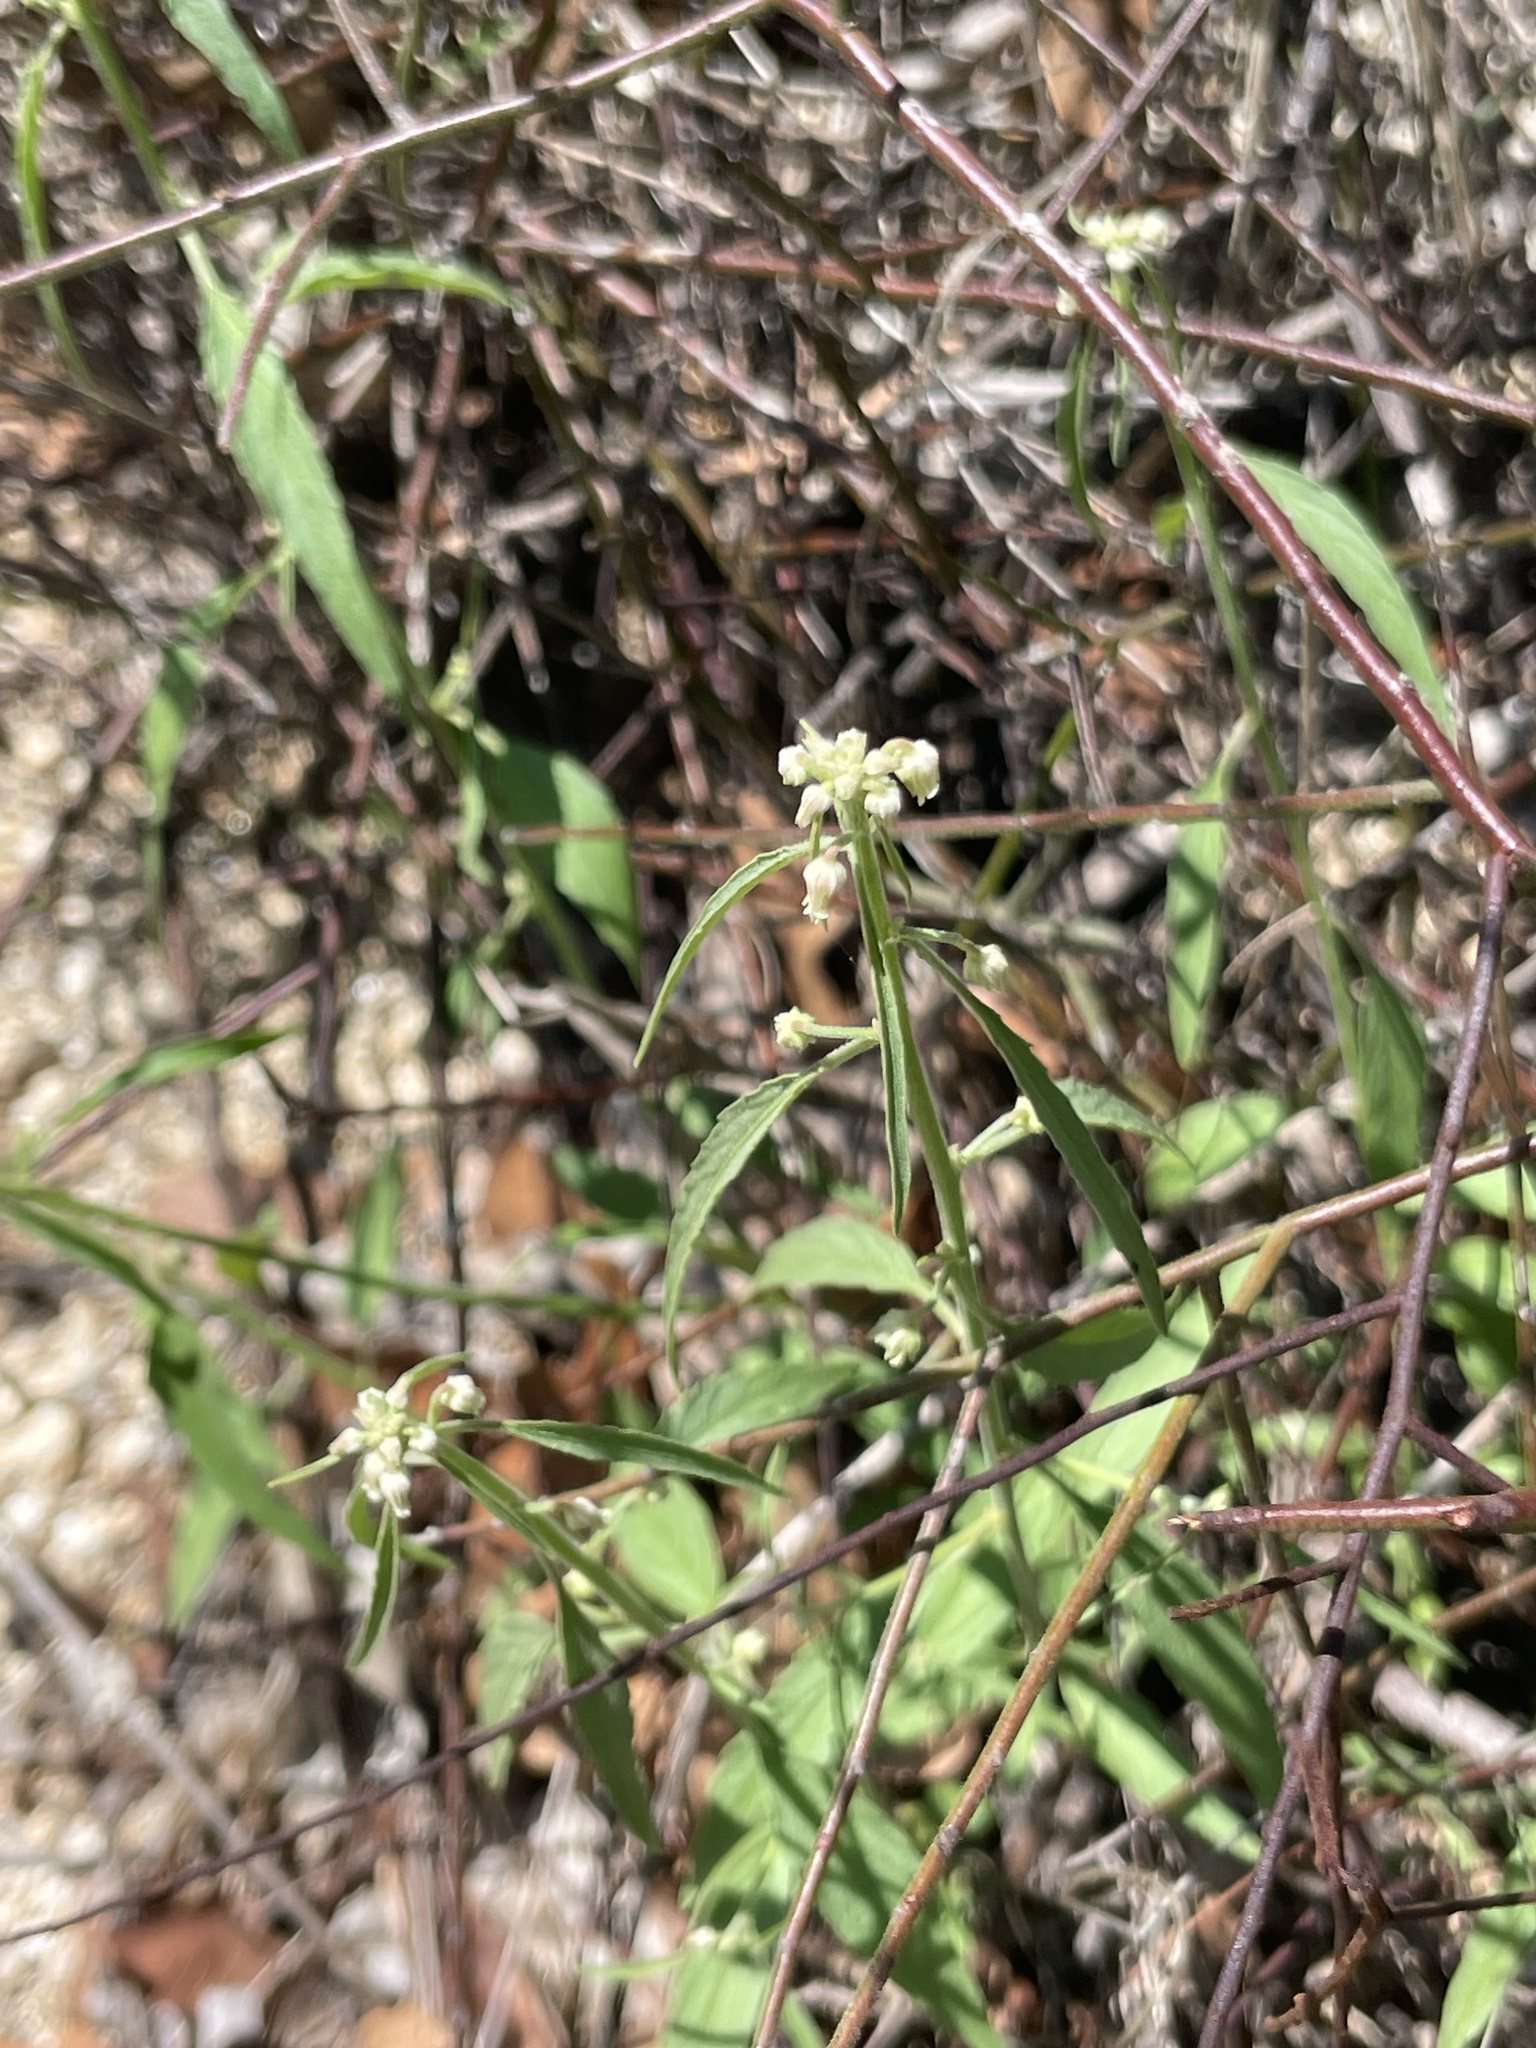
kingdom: Plantae
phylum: Tracheophyta
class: Magnoliopsida
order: Malpighiales
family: Violaceae
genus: Hybanthus
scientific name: Hybanthus fruticulosus
